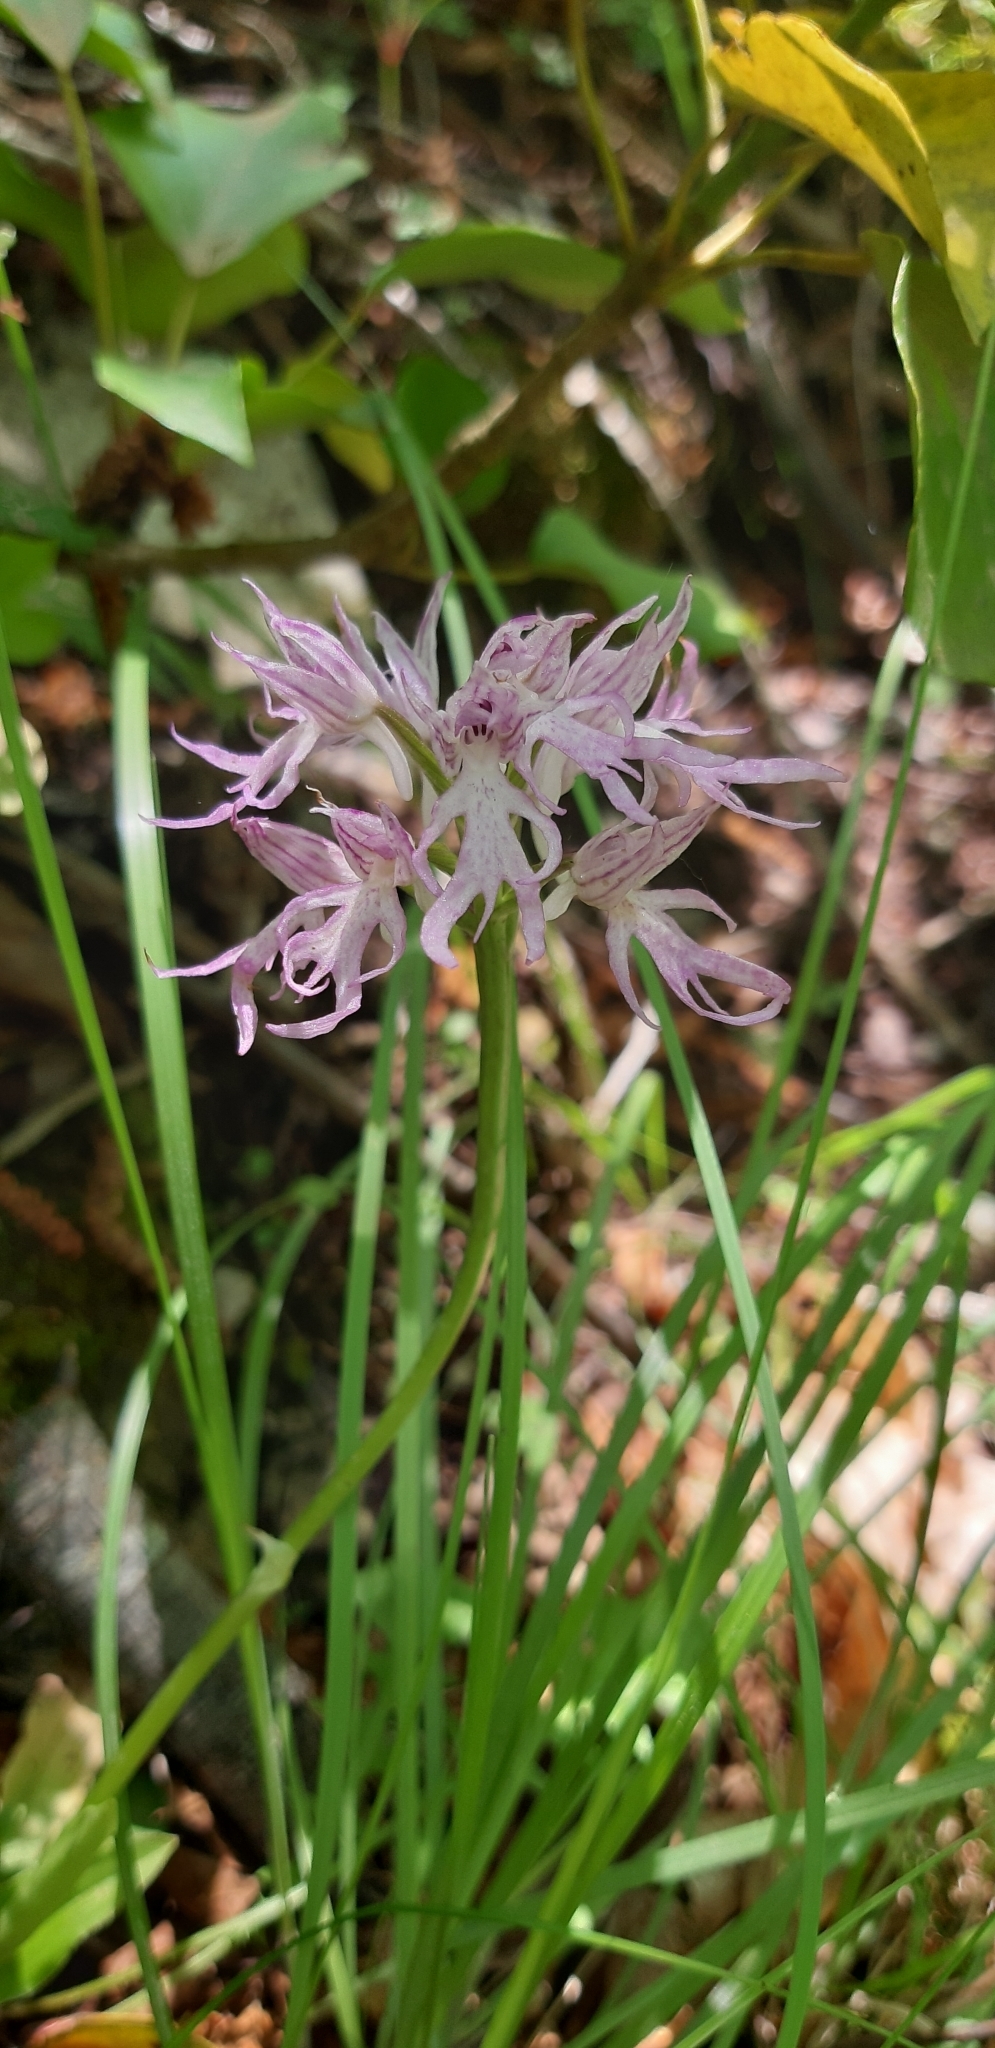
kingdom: Plantae
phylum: Tracheophyta
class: Liliopsida
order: Asparagales
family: Orchidaceae
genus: Orchis
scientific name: Orchis italica
